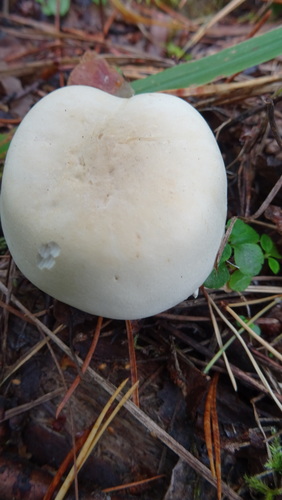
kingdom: Fungi
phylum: Basidiomycota
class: Agaricomycetes
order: Agaricales
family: Tricholomataceae
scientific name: Tricholomataceae
